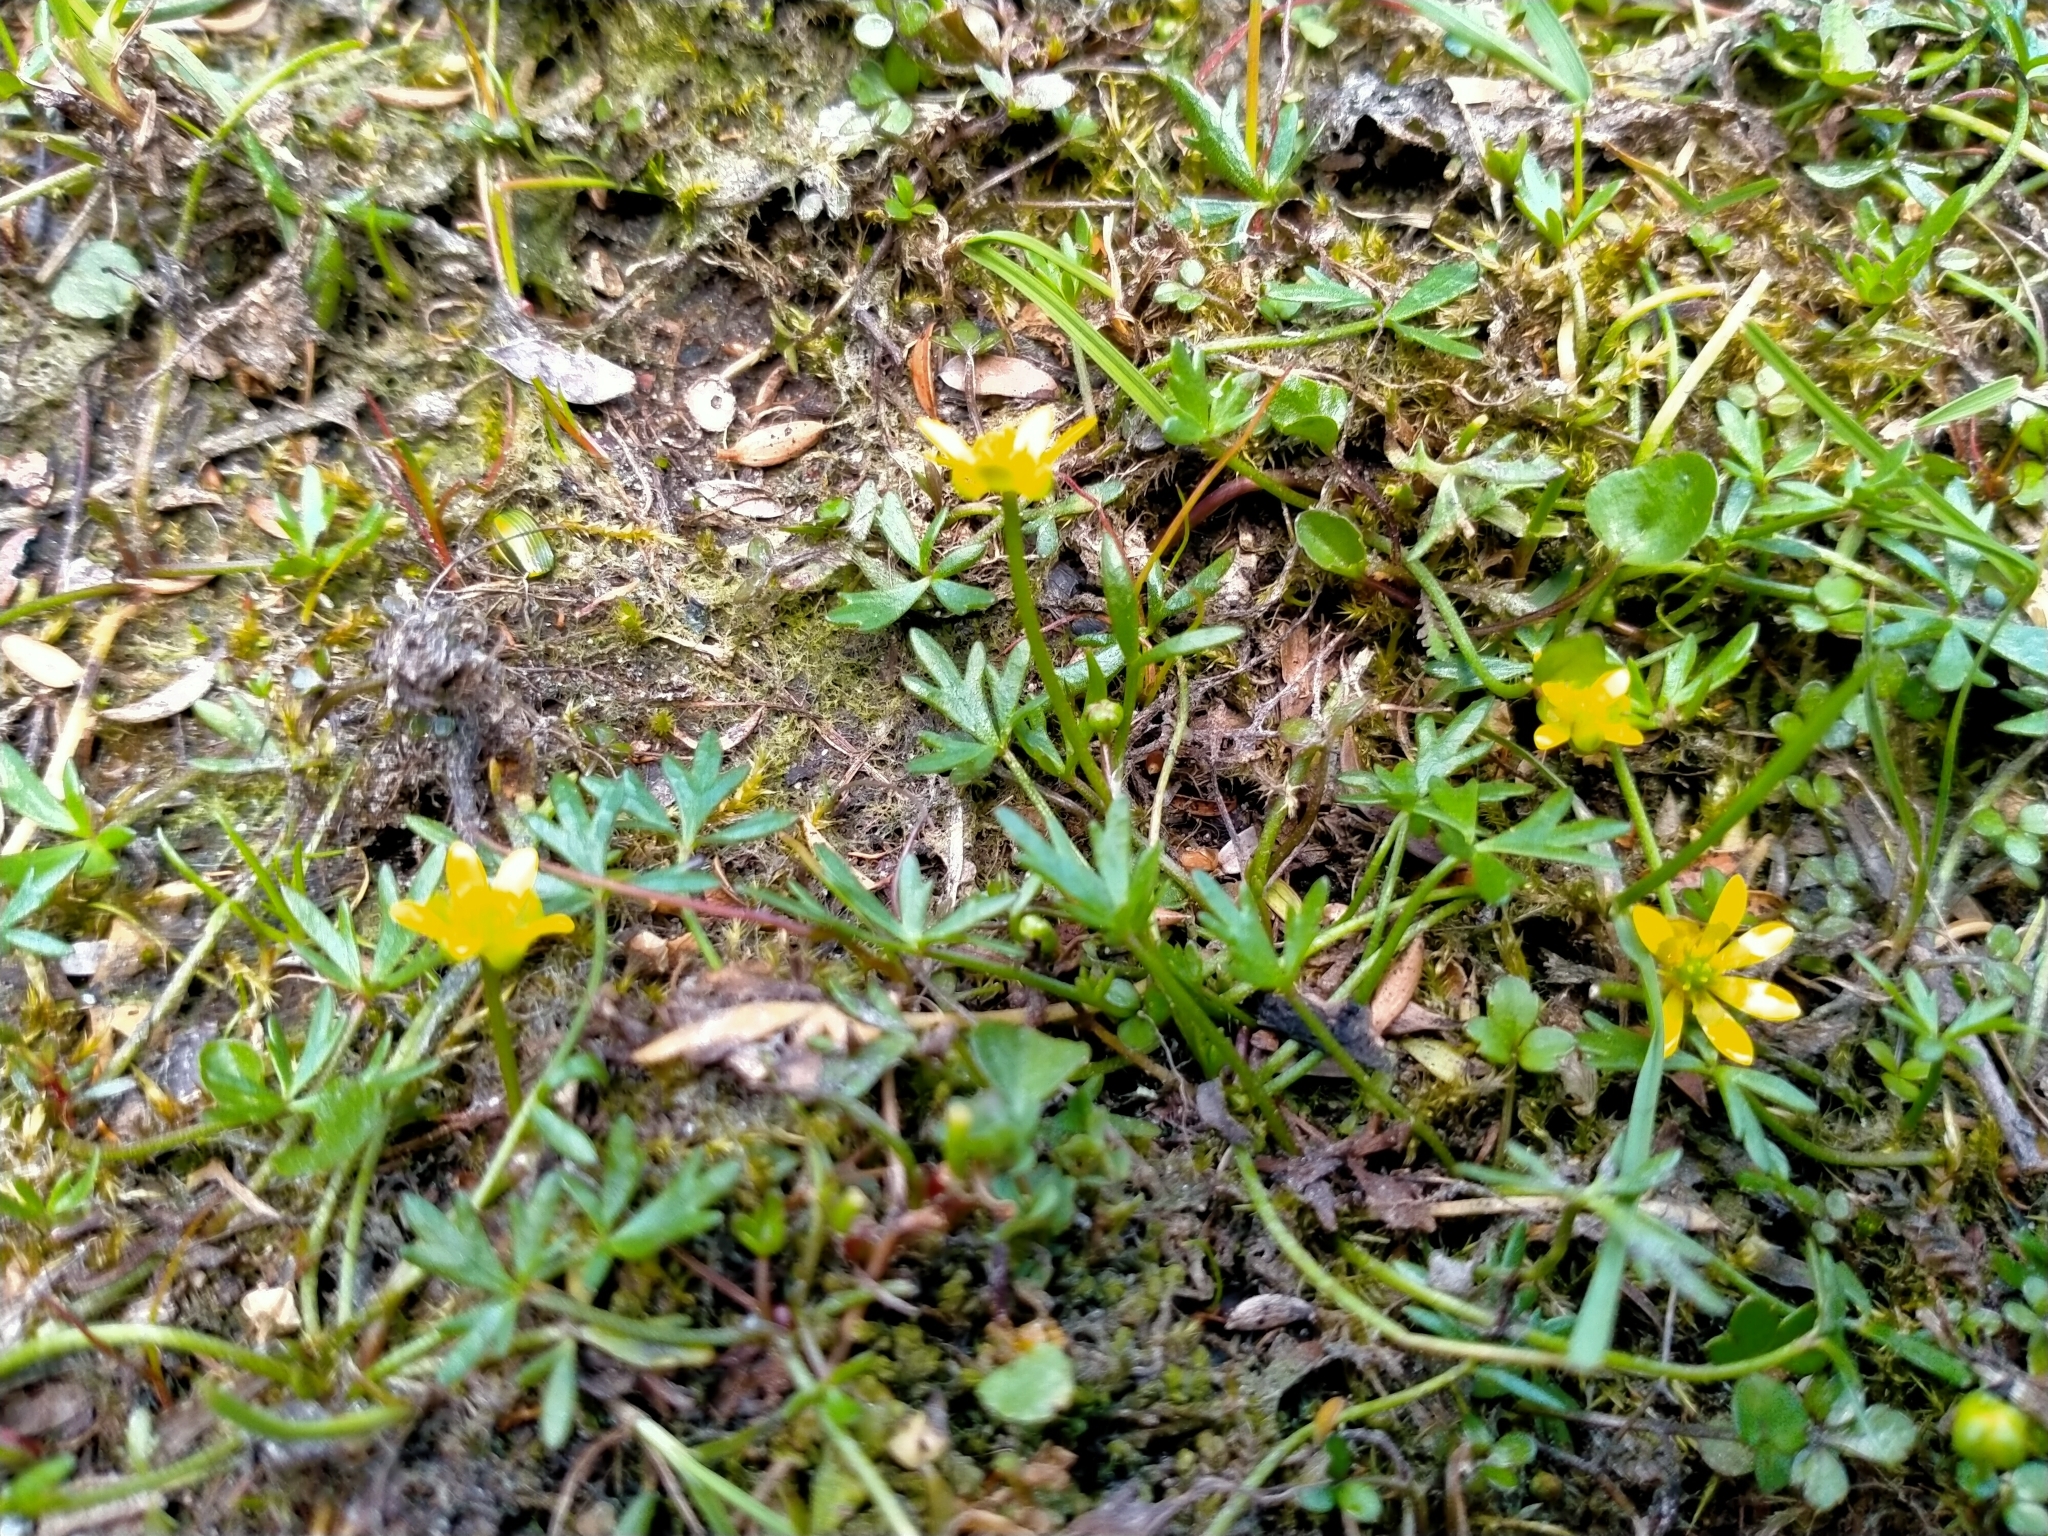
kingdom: Plantae
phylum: Tracheophyta
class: Magnoliopsida
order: Ranunculales
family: Ranunculaceae
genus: Ranunculus
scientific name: Ranunculus glabrifolius
